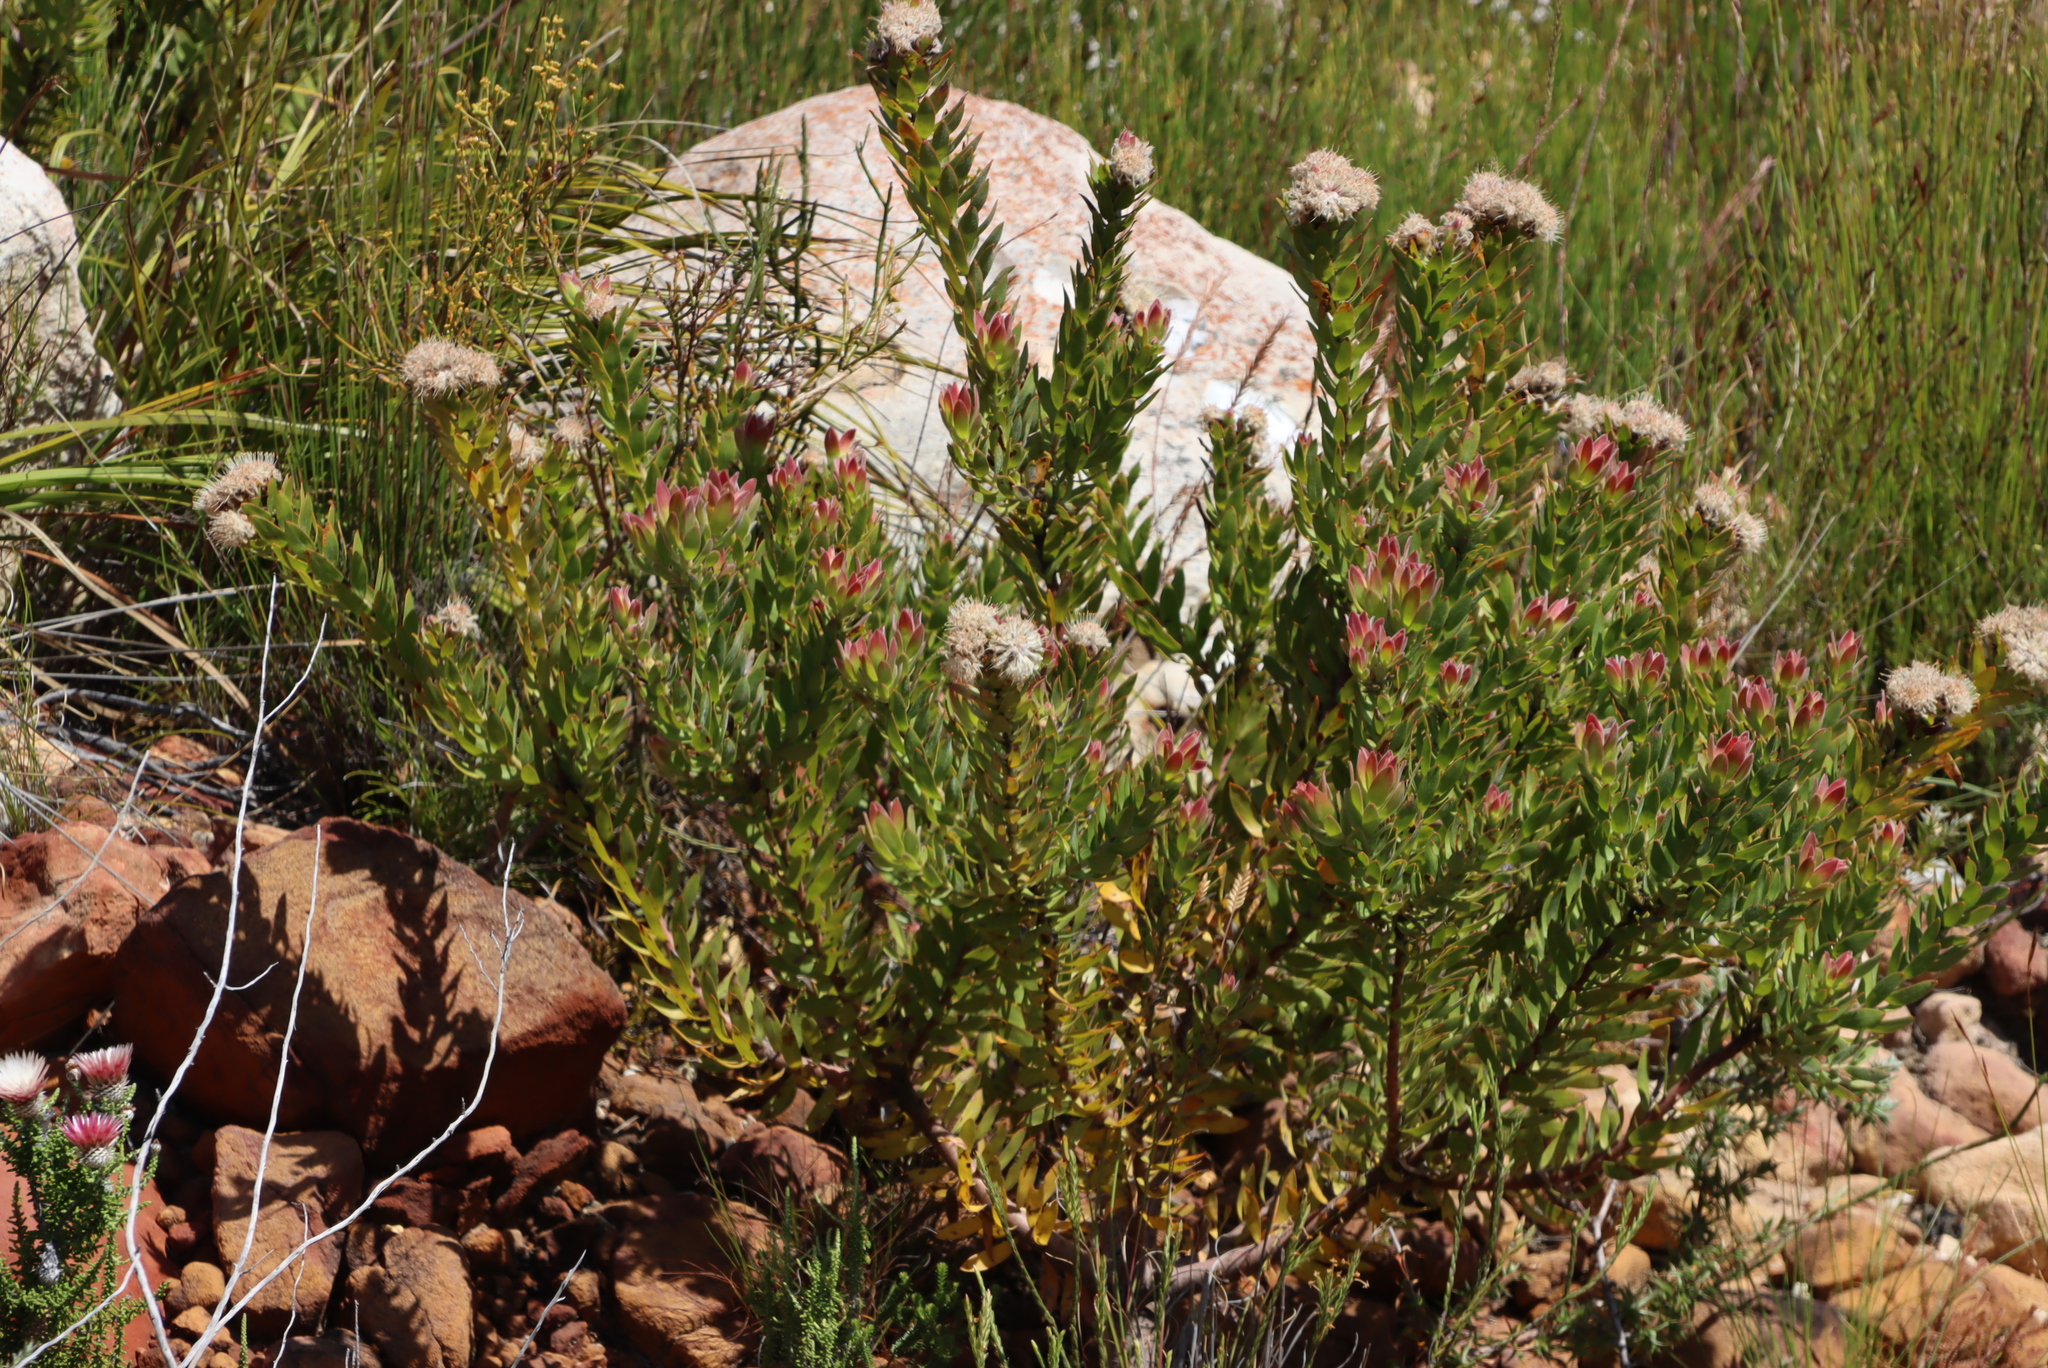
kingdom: Plantae
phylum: Tracheophyta
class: Magnoliopsida
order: Proteales
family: Proteaceae
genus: Leucospermum
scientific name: Leucospermum bolusii
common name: Gordon's bay pincushion
